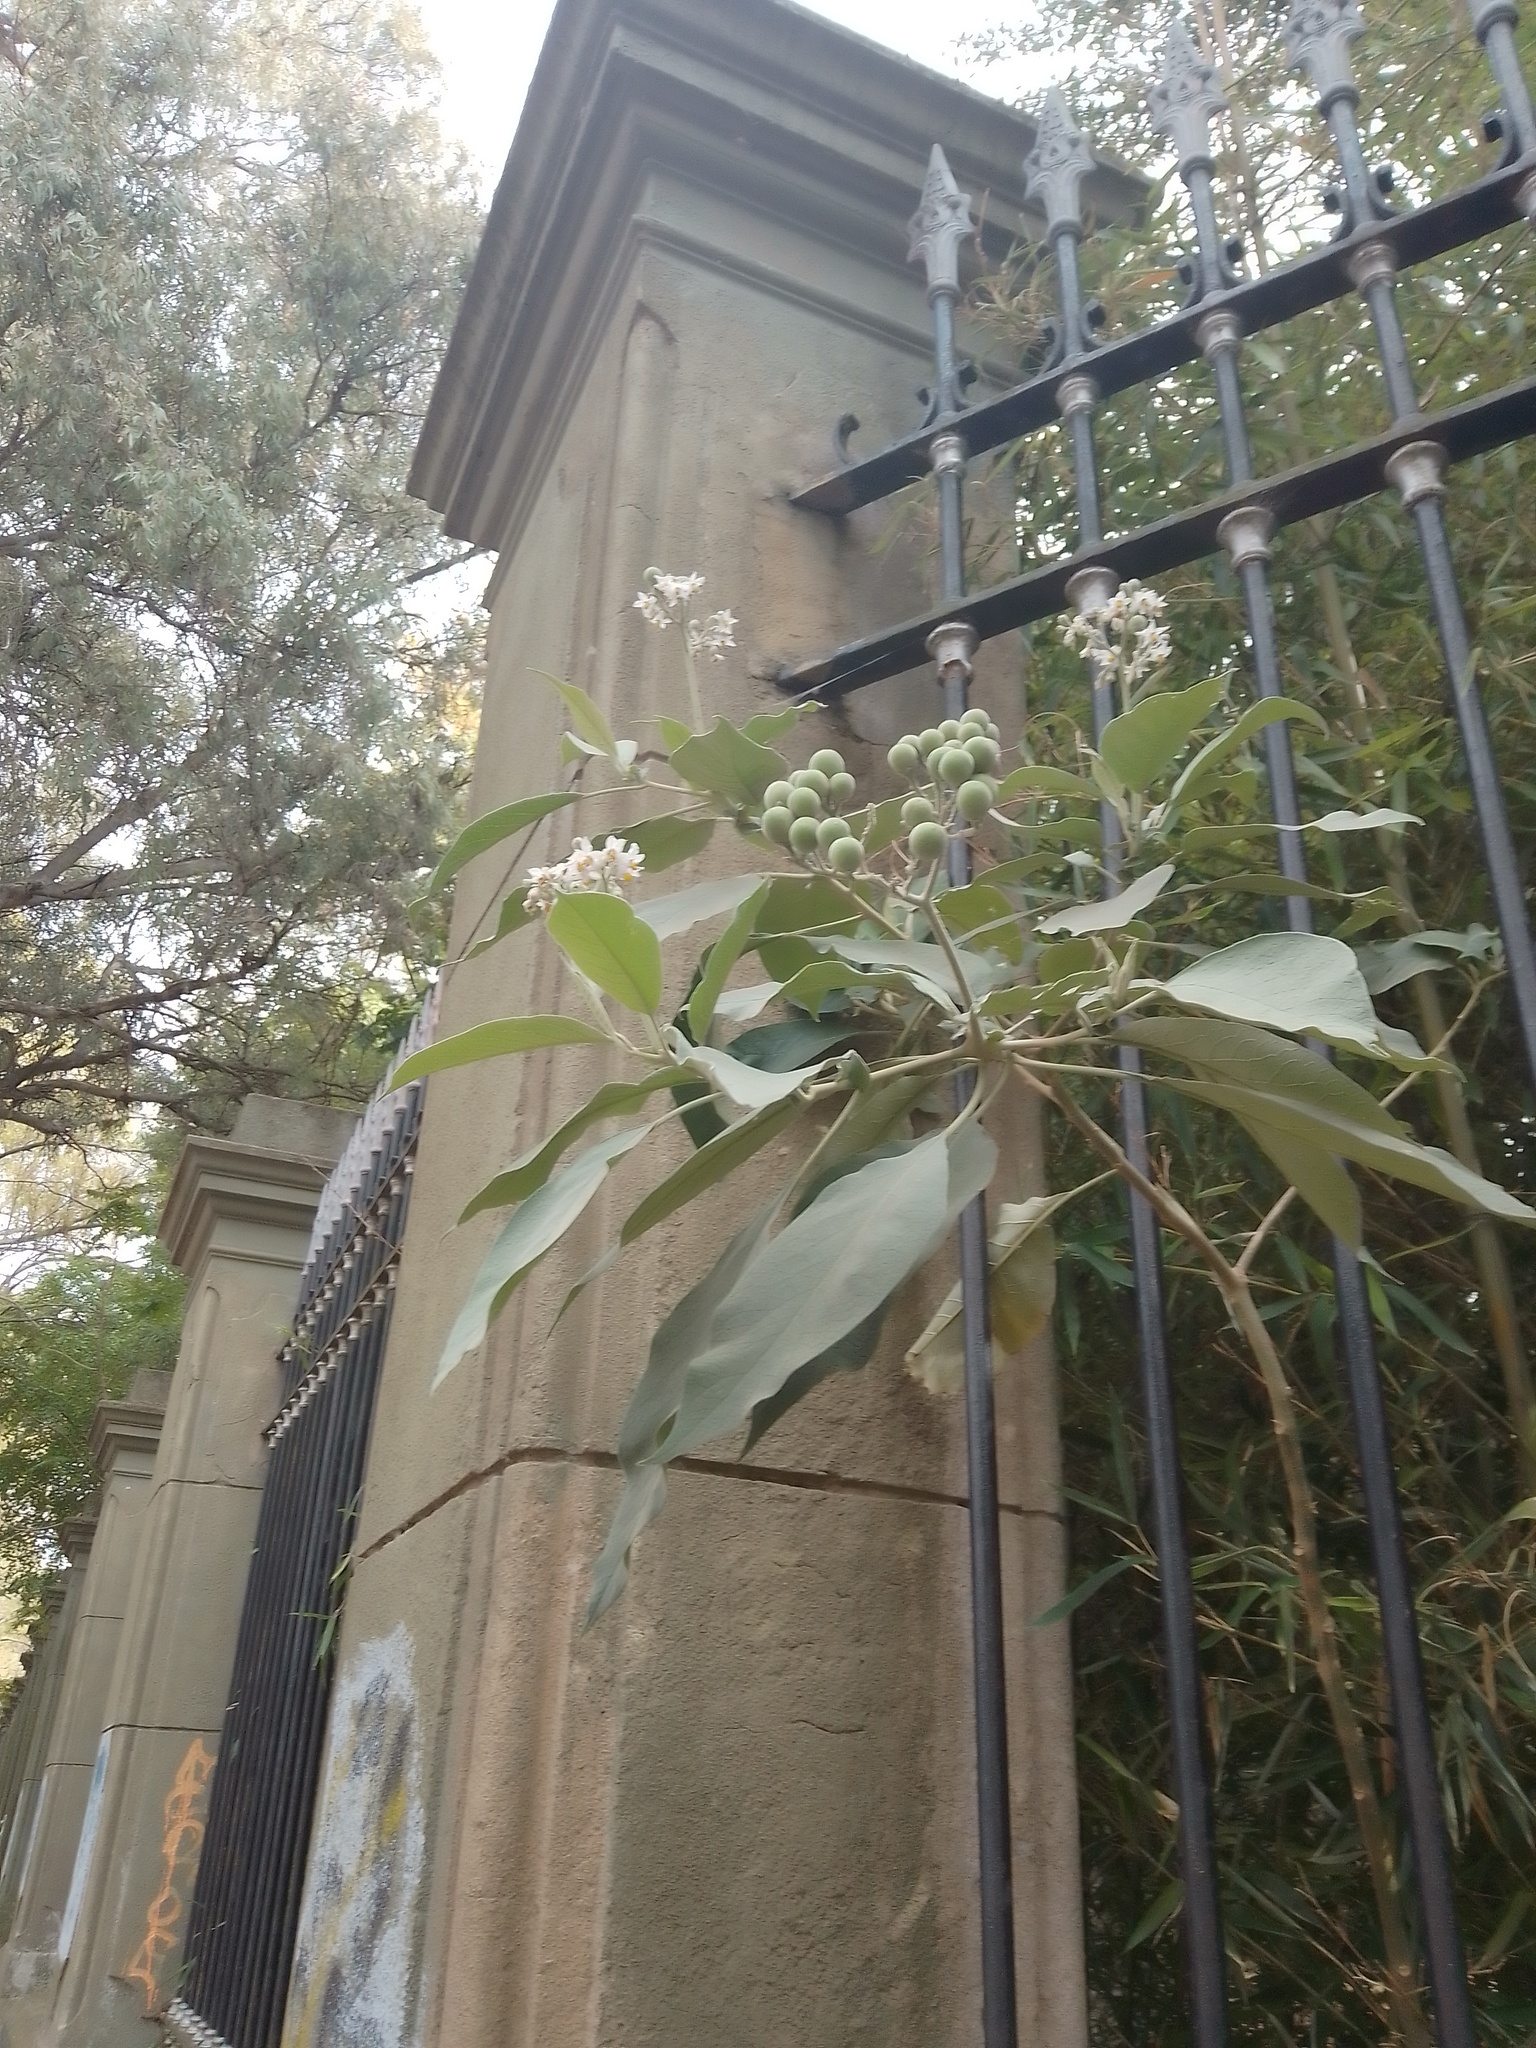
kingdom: Plantae
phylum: Tracheophyta
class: Magnoliopsida
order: Solanales
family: Solanaceae
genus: Solanum
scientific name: Solanum granulosoleprosum
